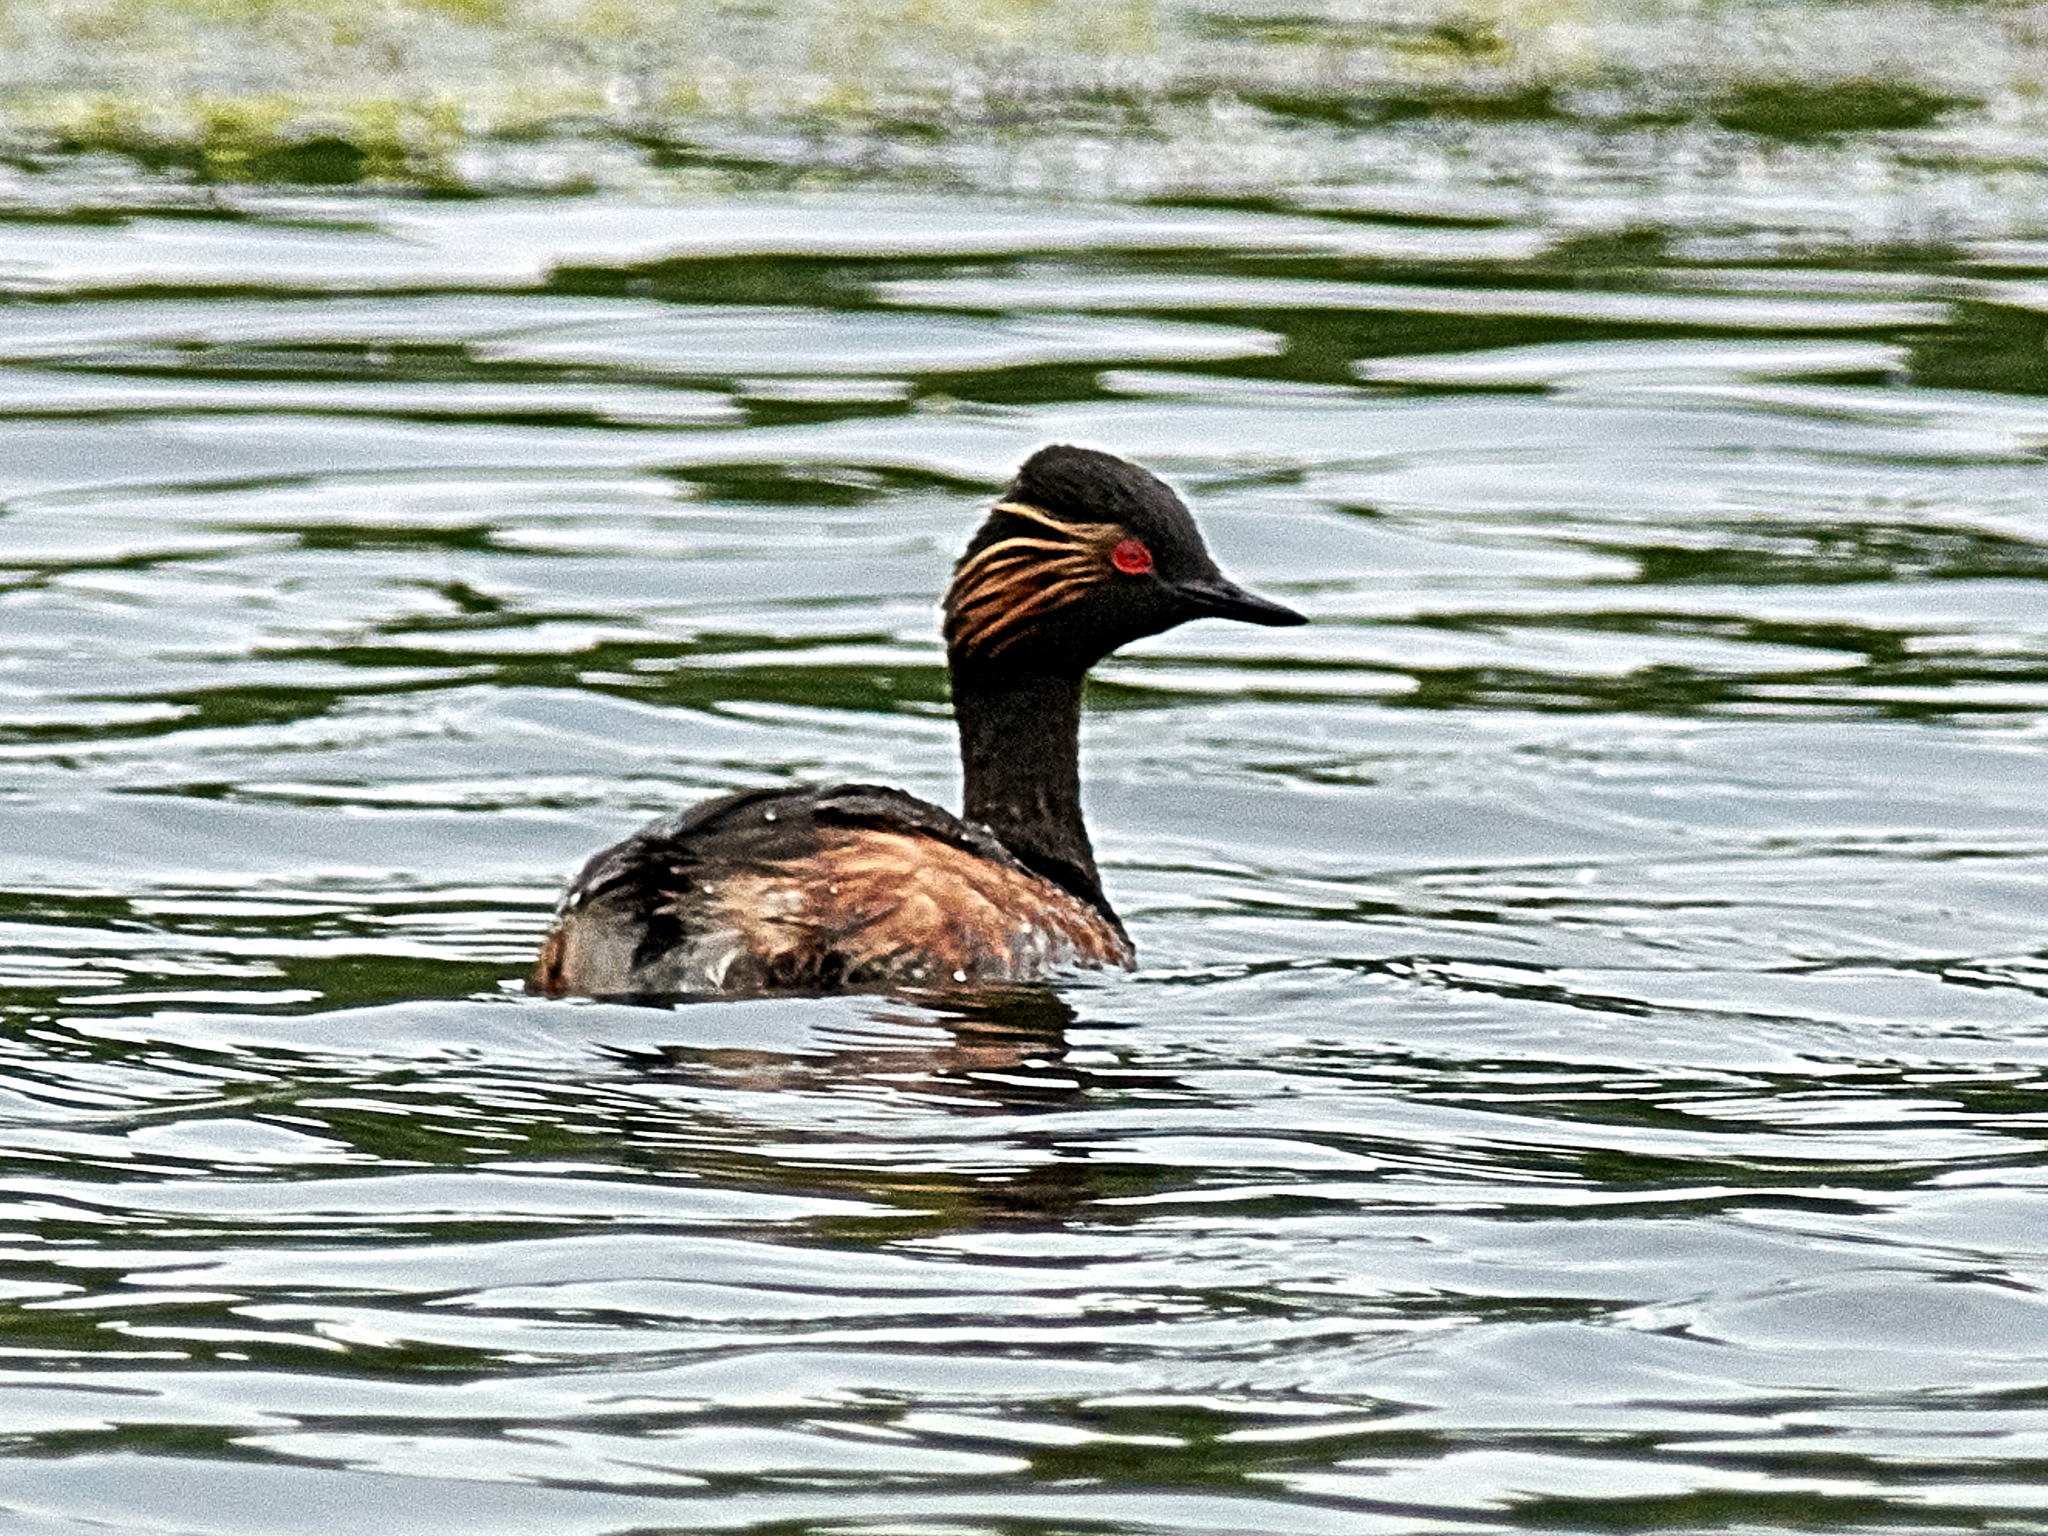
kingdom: Animalia
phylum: Chordata
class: Aves
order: Podicipediformes
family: Podicipedidae
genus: Podiceps
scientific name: Podiceps nigricollis
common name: Black-necked grebe
